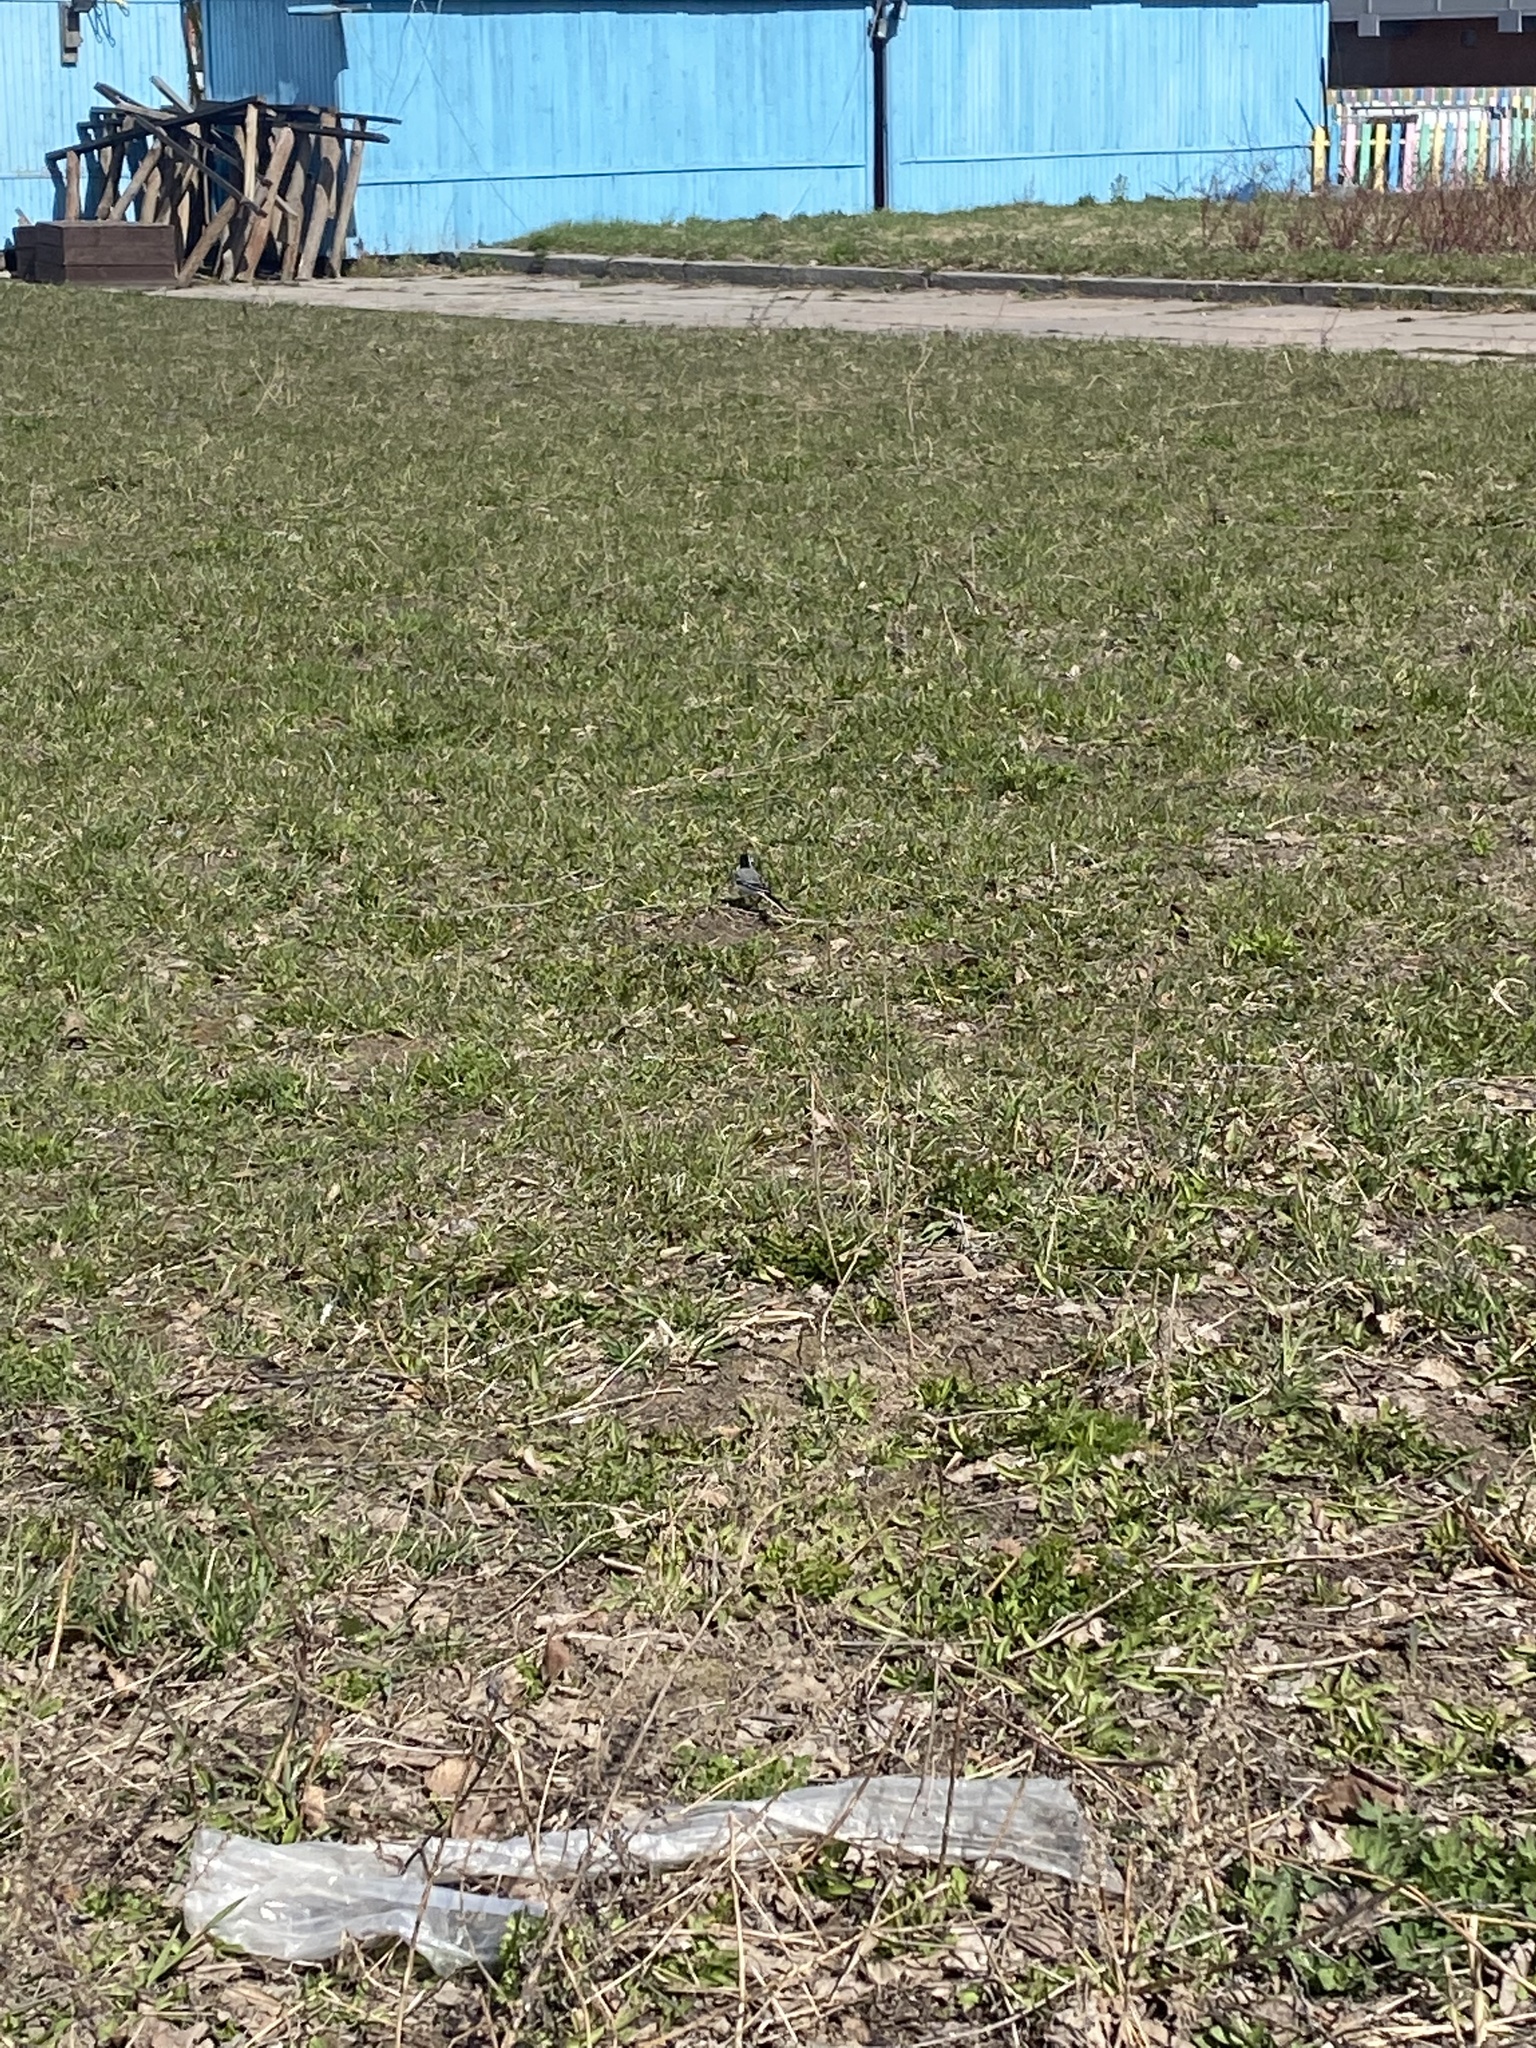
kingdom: Animalia
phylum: Chordata
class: Aves
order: Passeriformes
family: Motacillidae
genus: Motacilla
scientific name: Motacilla alba
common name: White wagtail
